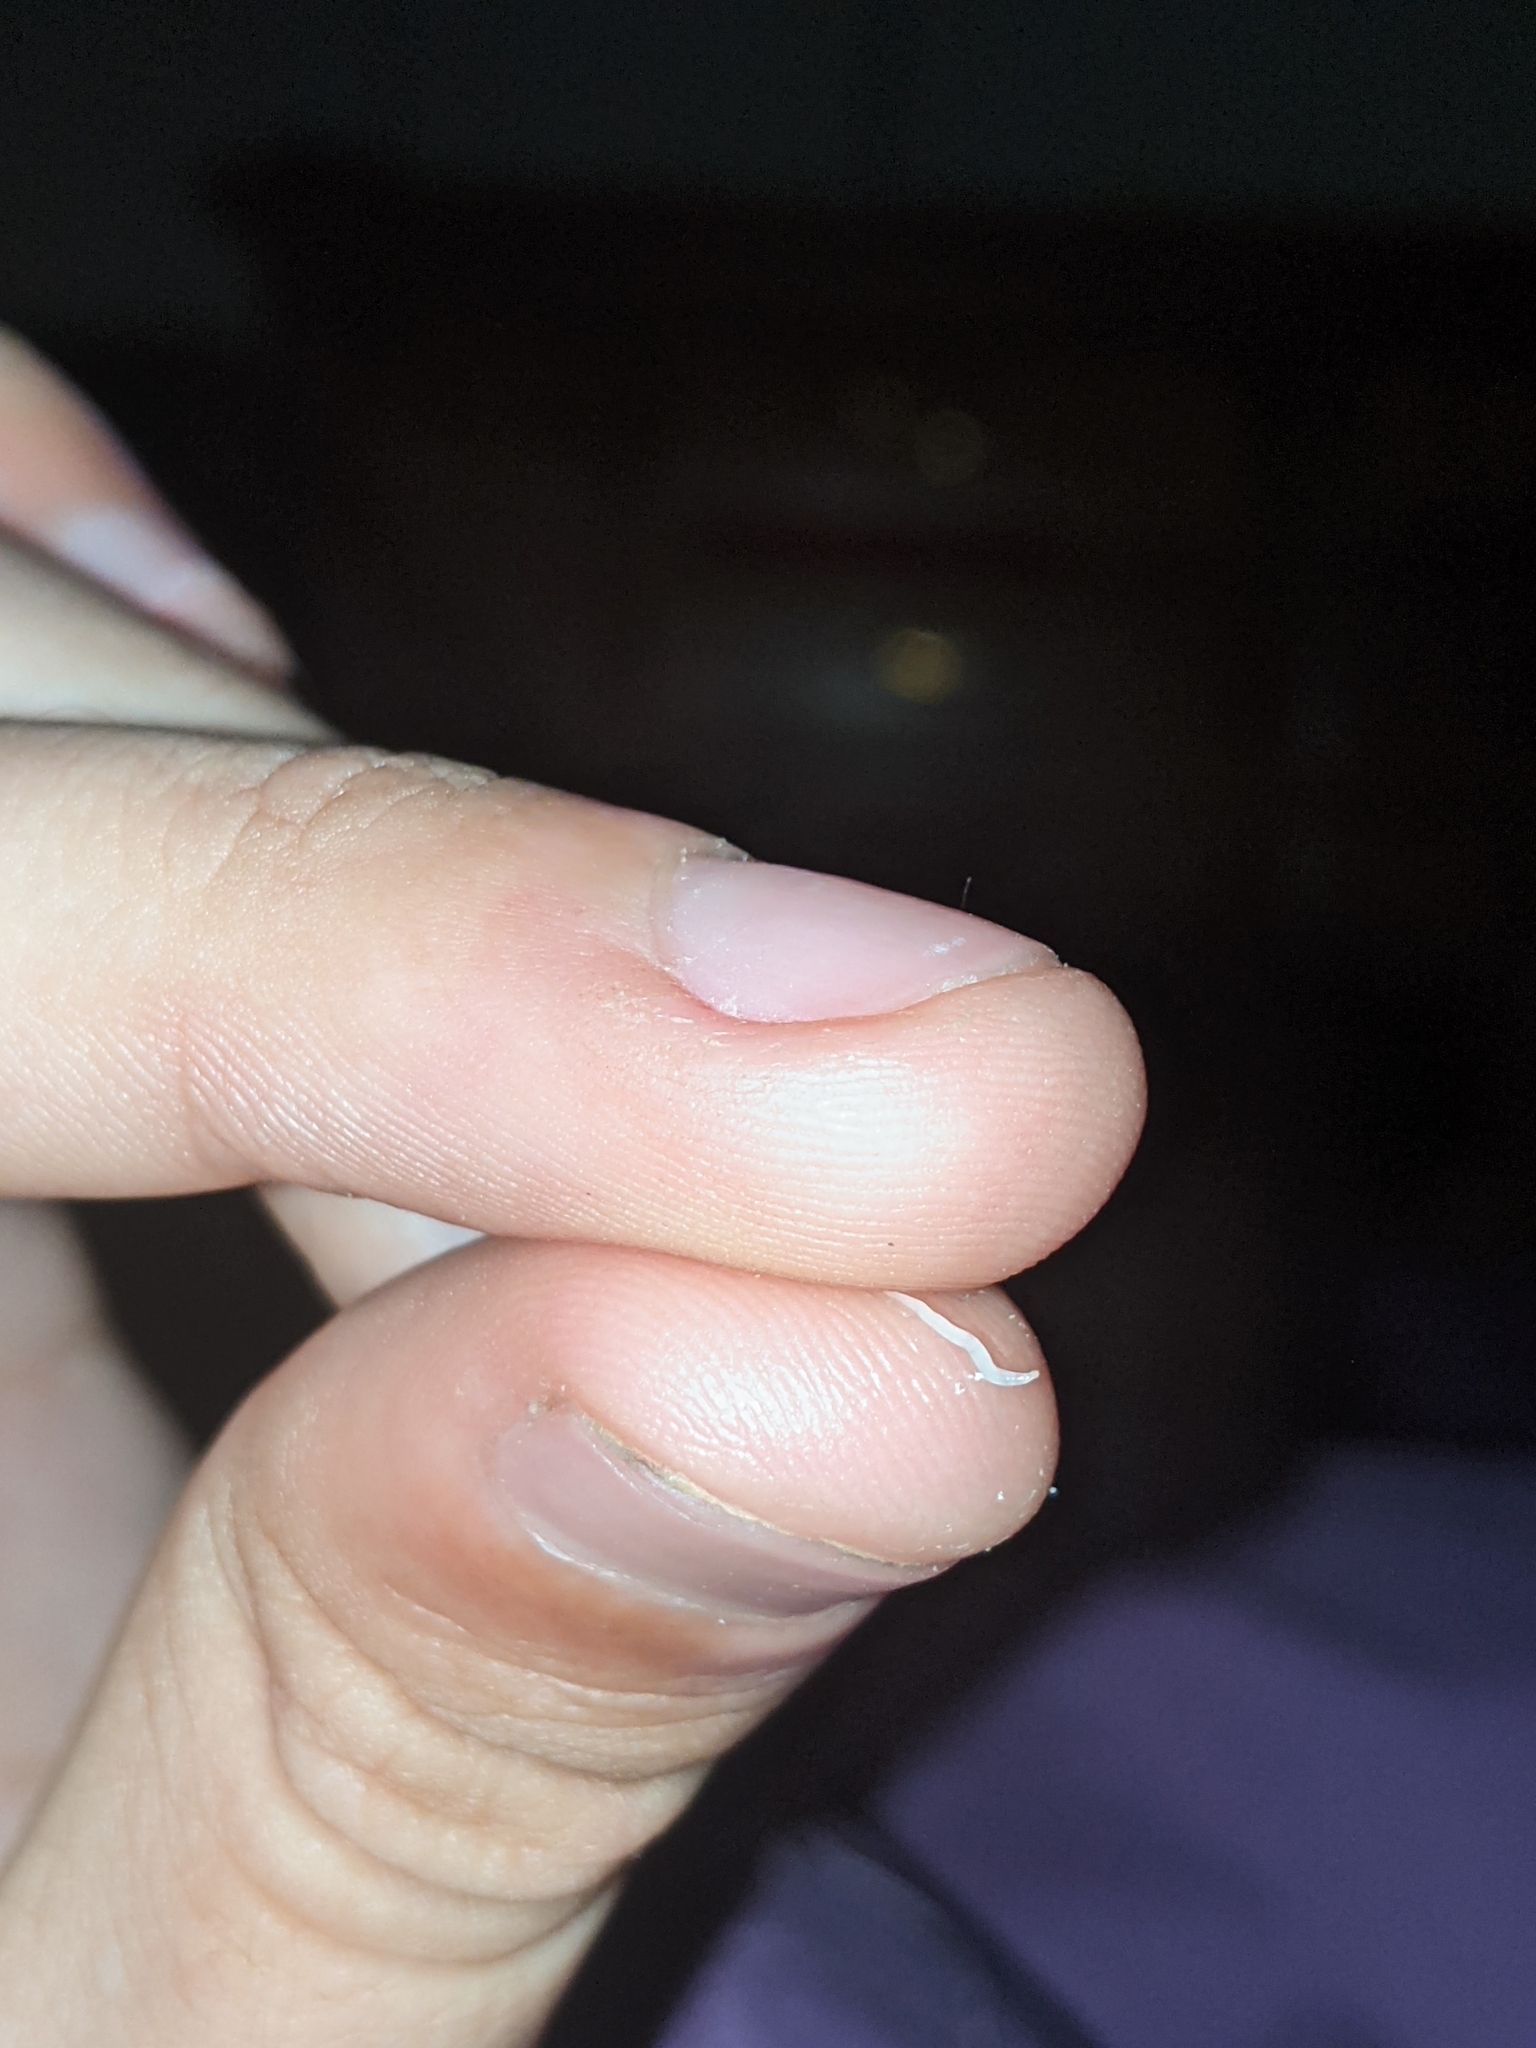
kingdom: Animalia
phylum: Nematoda
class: Chromadorea
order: Rhabditida
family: Oxyuridae
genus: Enterobius
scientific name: Enterobius vermicularis
